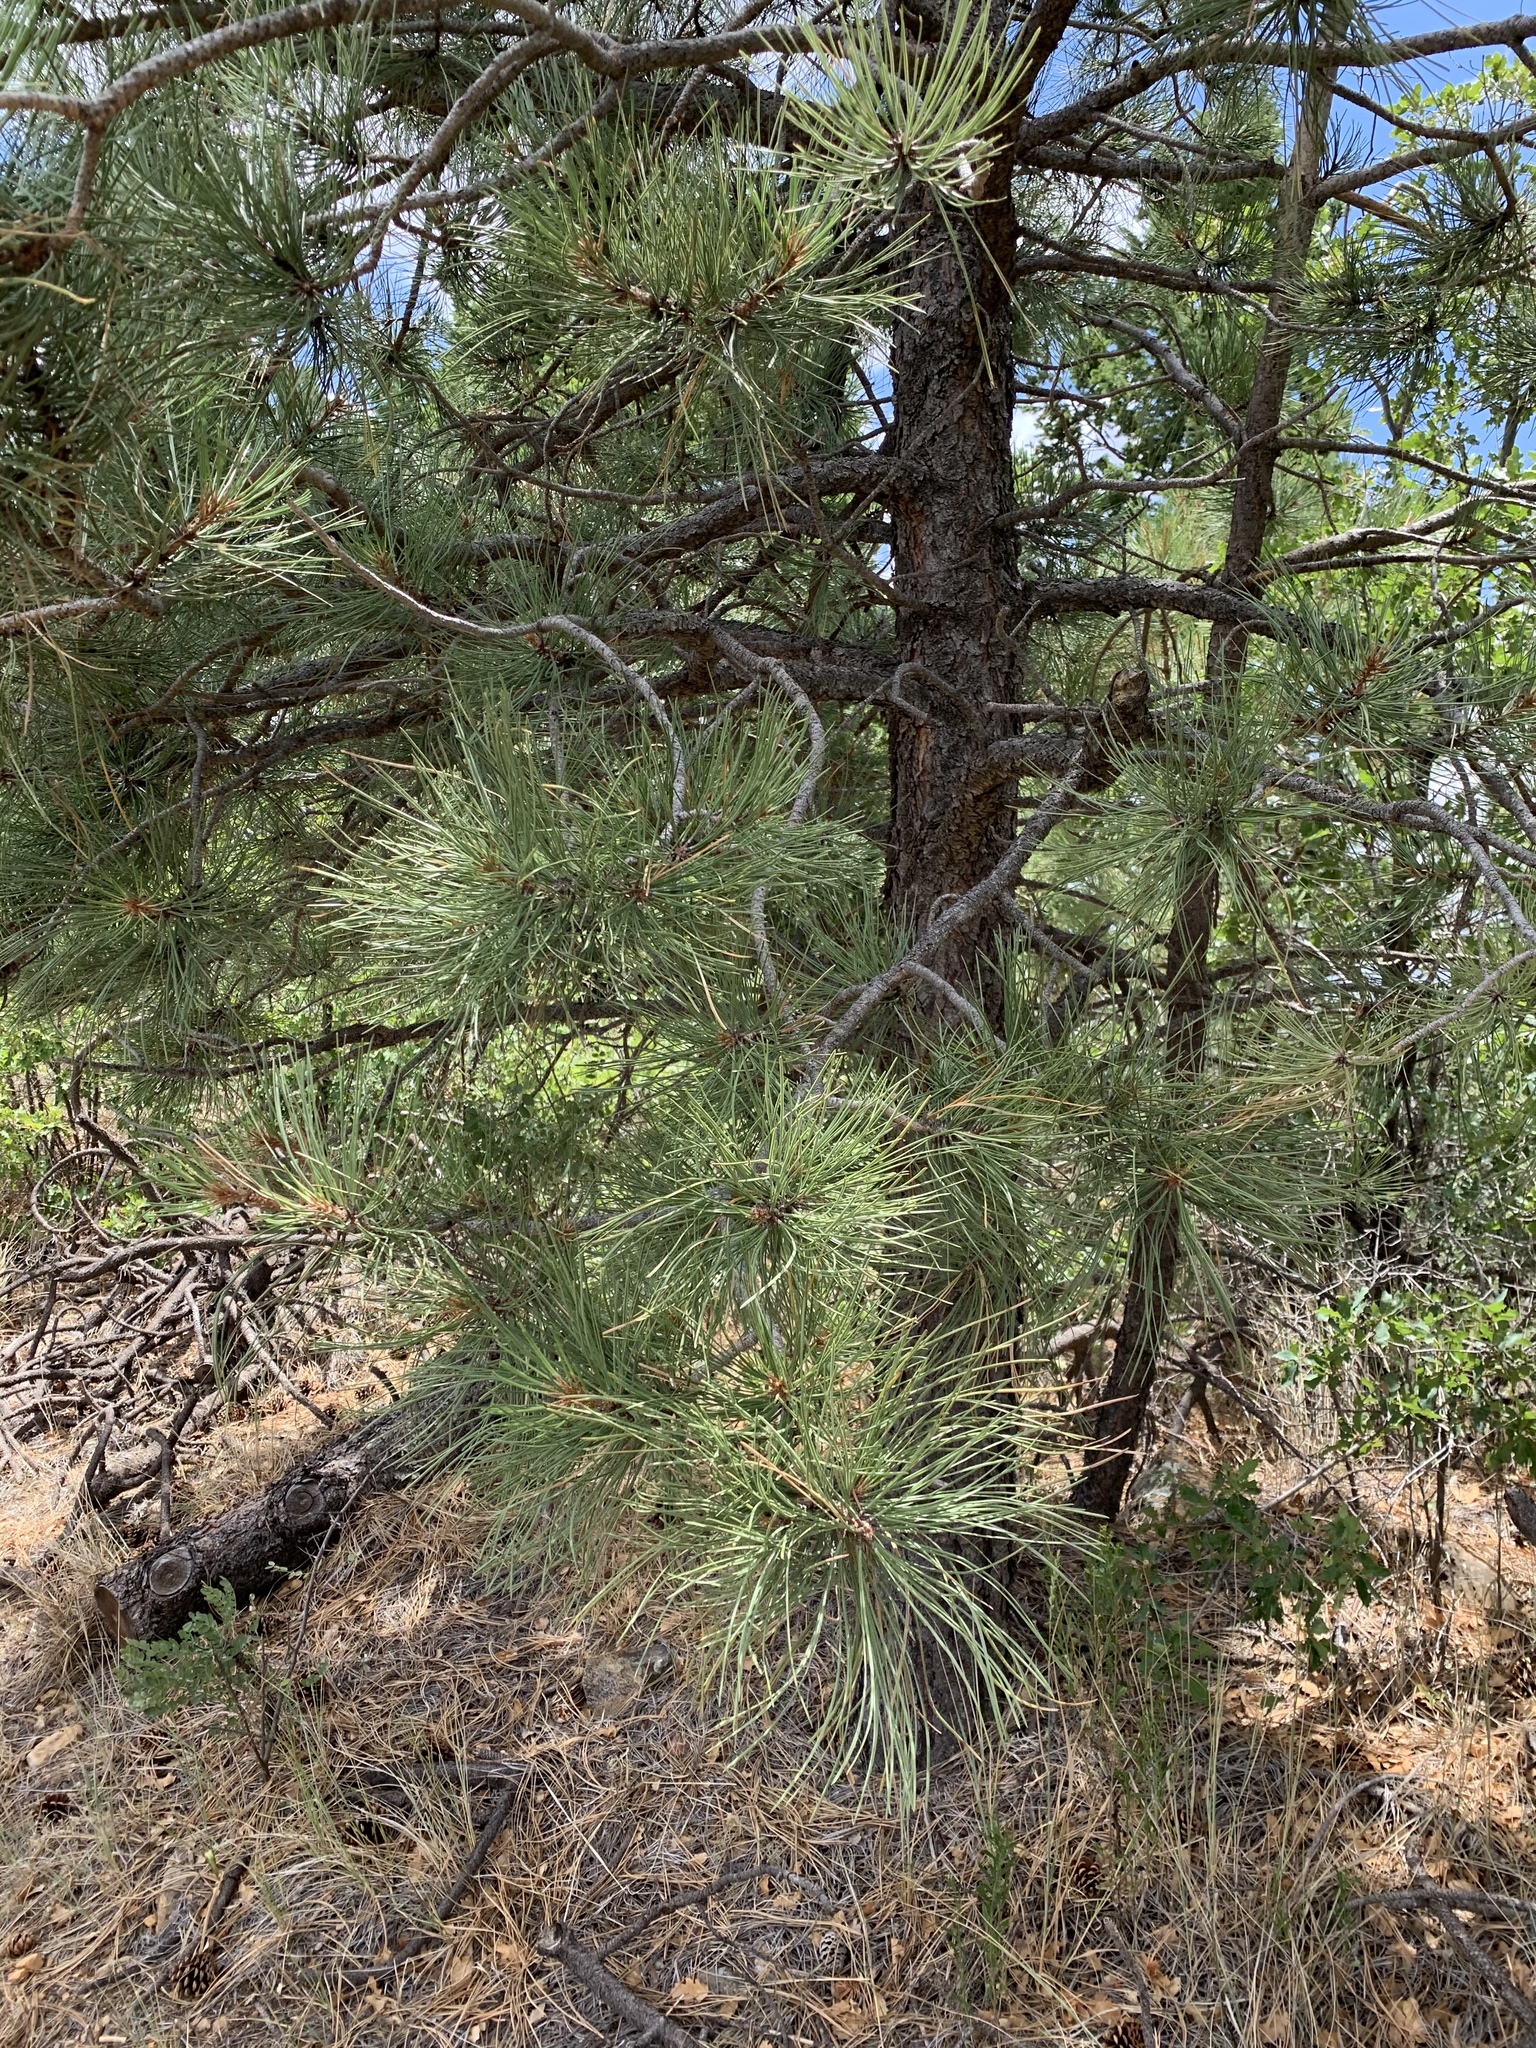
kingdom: Plantae
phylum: Tracheophyta
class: Pinopsida
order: Pinales
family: Pinaceae
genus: Pinus
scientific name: Pinus ponderosa
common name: Western yellow-pine
